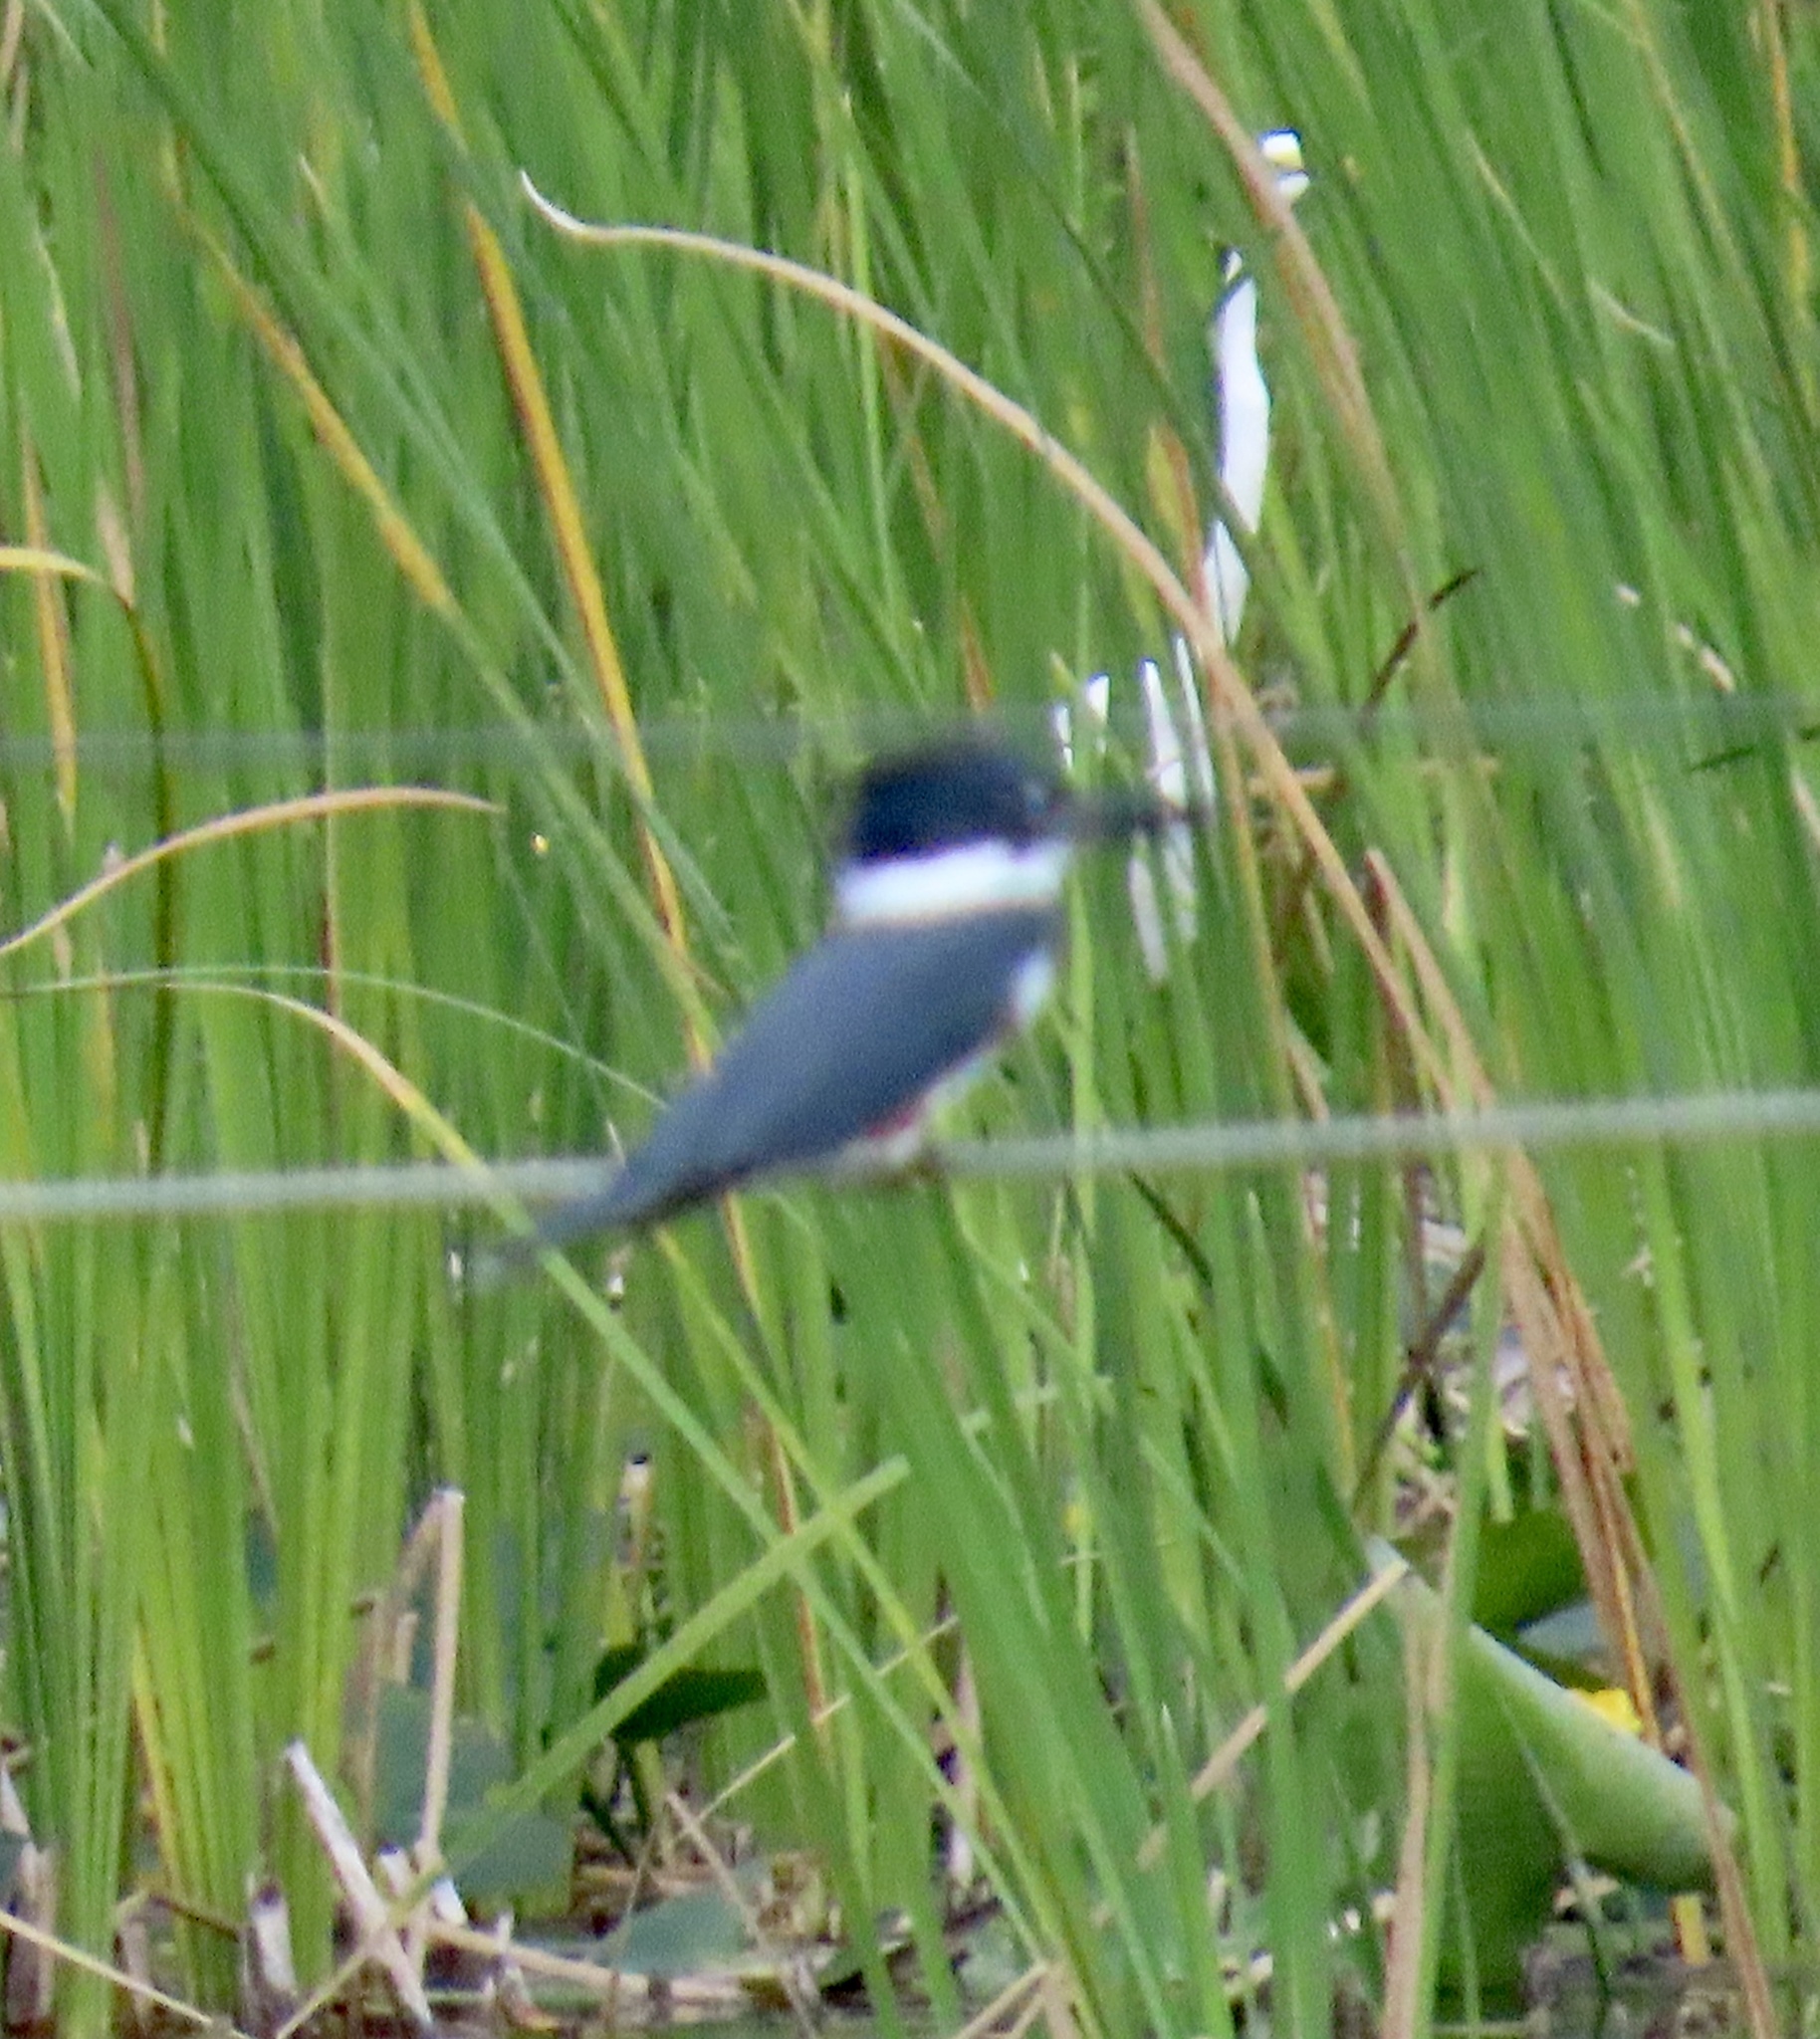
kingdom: Animalia
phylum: Chordata
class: Aves
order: Coraciiformes
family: Alcedinidae
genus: Megaceryle
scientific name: Megaceryle alcyon
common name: Belted kingfisher
